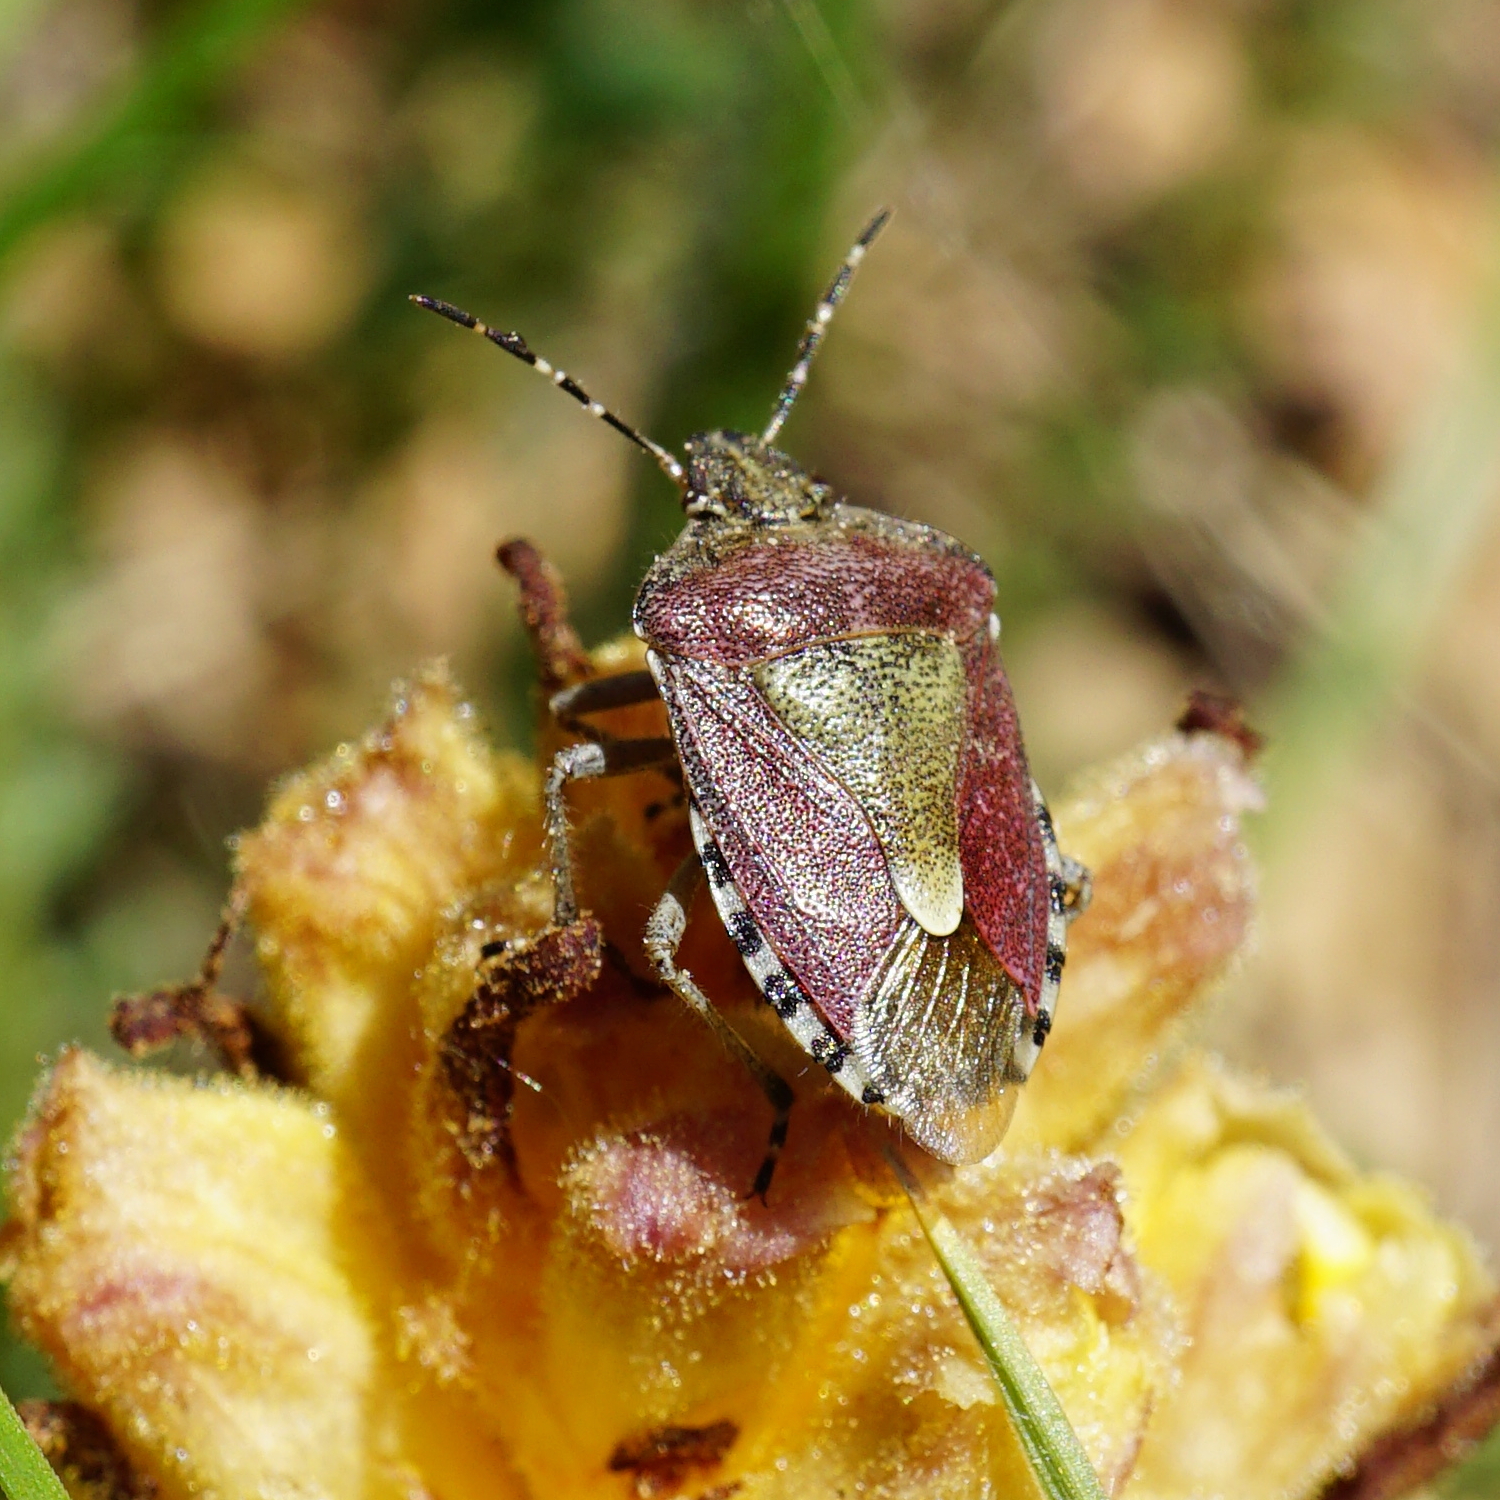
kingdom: Animalia
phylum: Arthropoda
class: Insecta
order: Hemiptera
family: Pentatomidae
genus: Dolycoris
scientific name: Dolycoris baccarum
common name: Sloe bug
